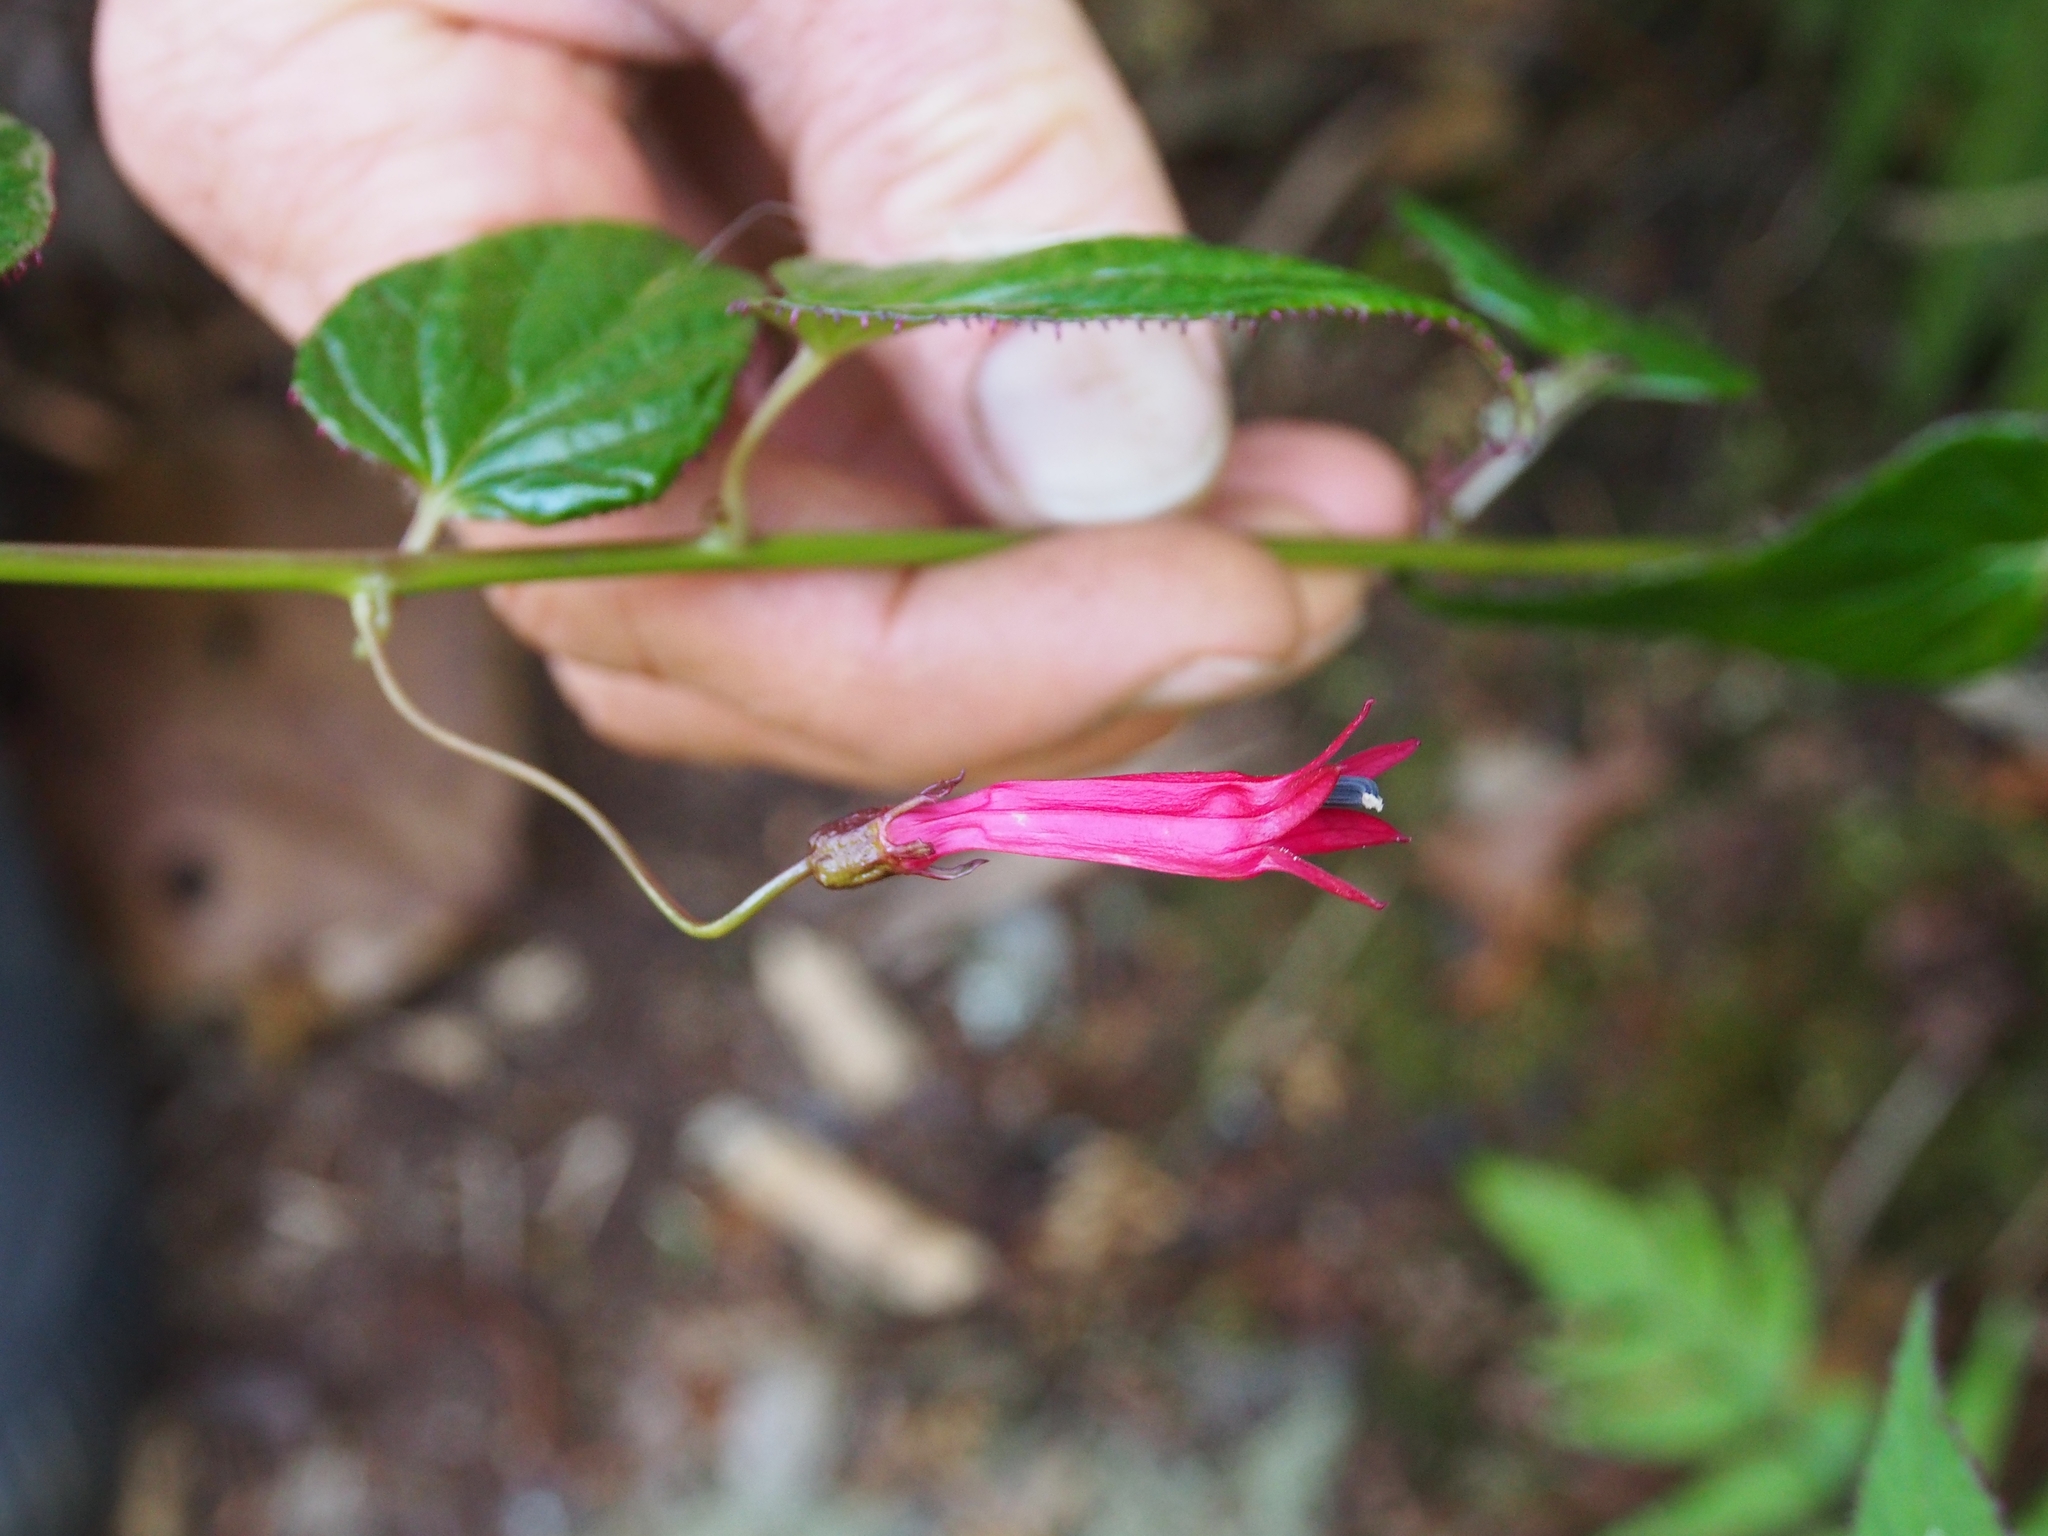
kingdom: Plantae
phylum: Tracheophyta
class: Magnoliopsida
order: Asterales
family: Campanulaceae
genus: Centropogon
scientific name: Centropogon costaricae
